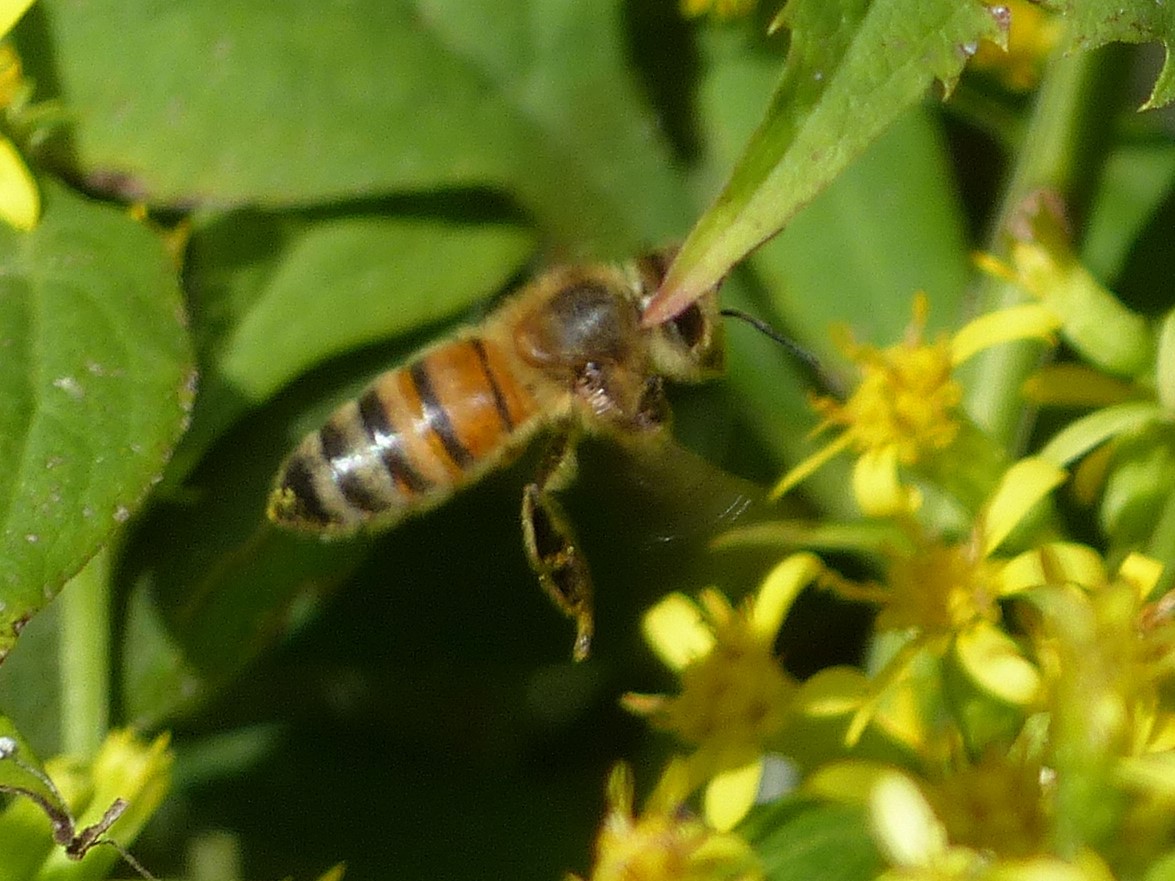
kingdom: Animalia
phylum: Arthropoda
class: Insecta
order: Hymenoptera
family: Apidae
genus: Apis
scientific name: Apis mellifera
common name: Honey bee
